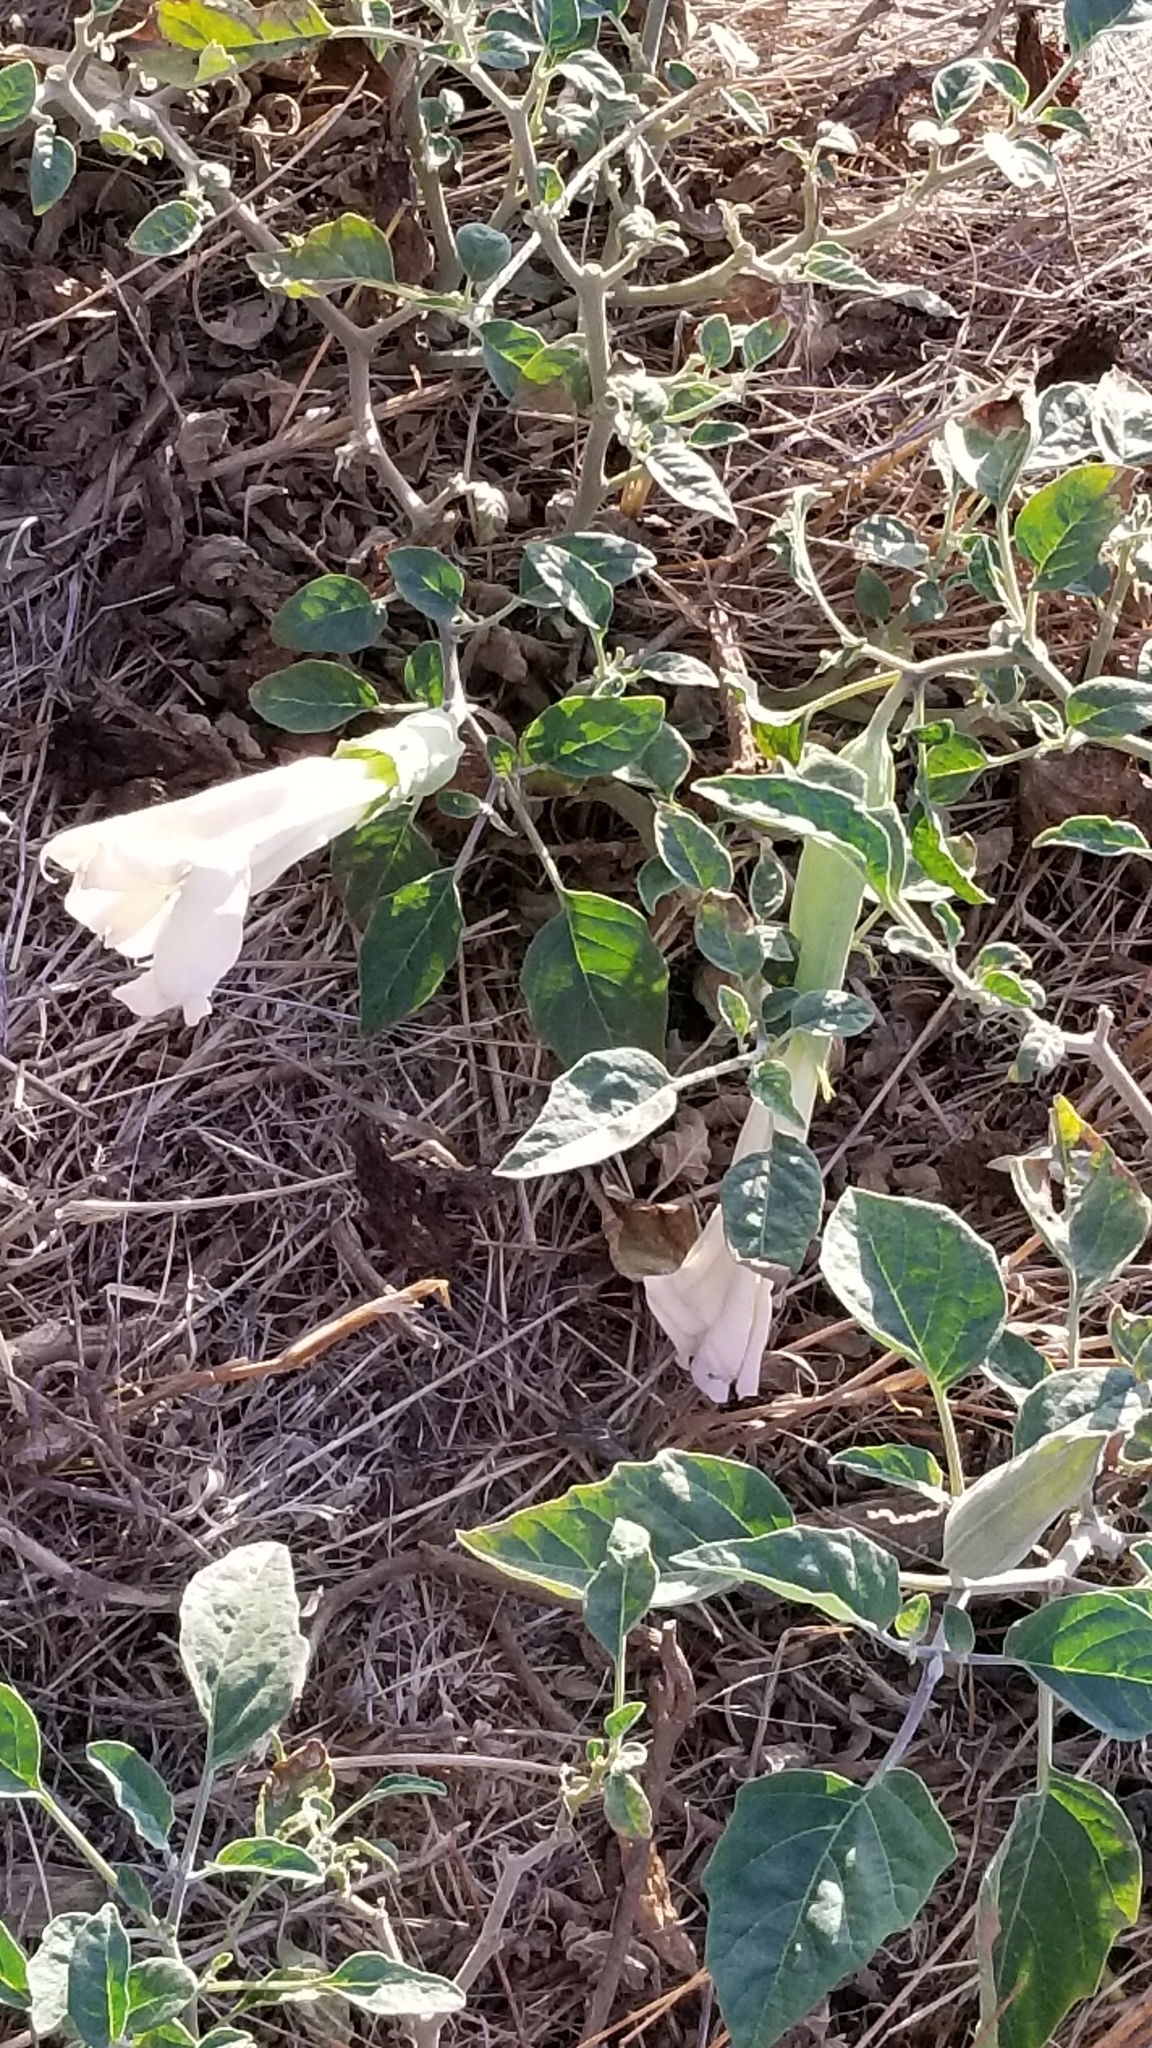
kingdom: Plantae
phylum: Tracheophyta
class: Magnoliopsida
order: Solanales
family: Solanaceae
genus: Datura
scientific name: Datura wrightii
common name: Sacred thorn-apple
